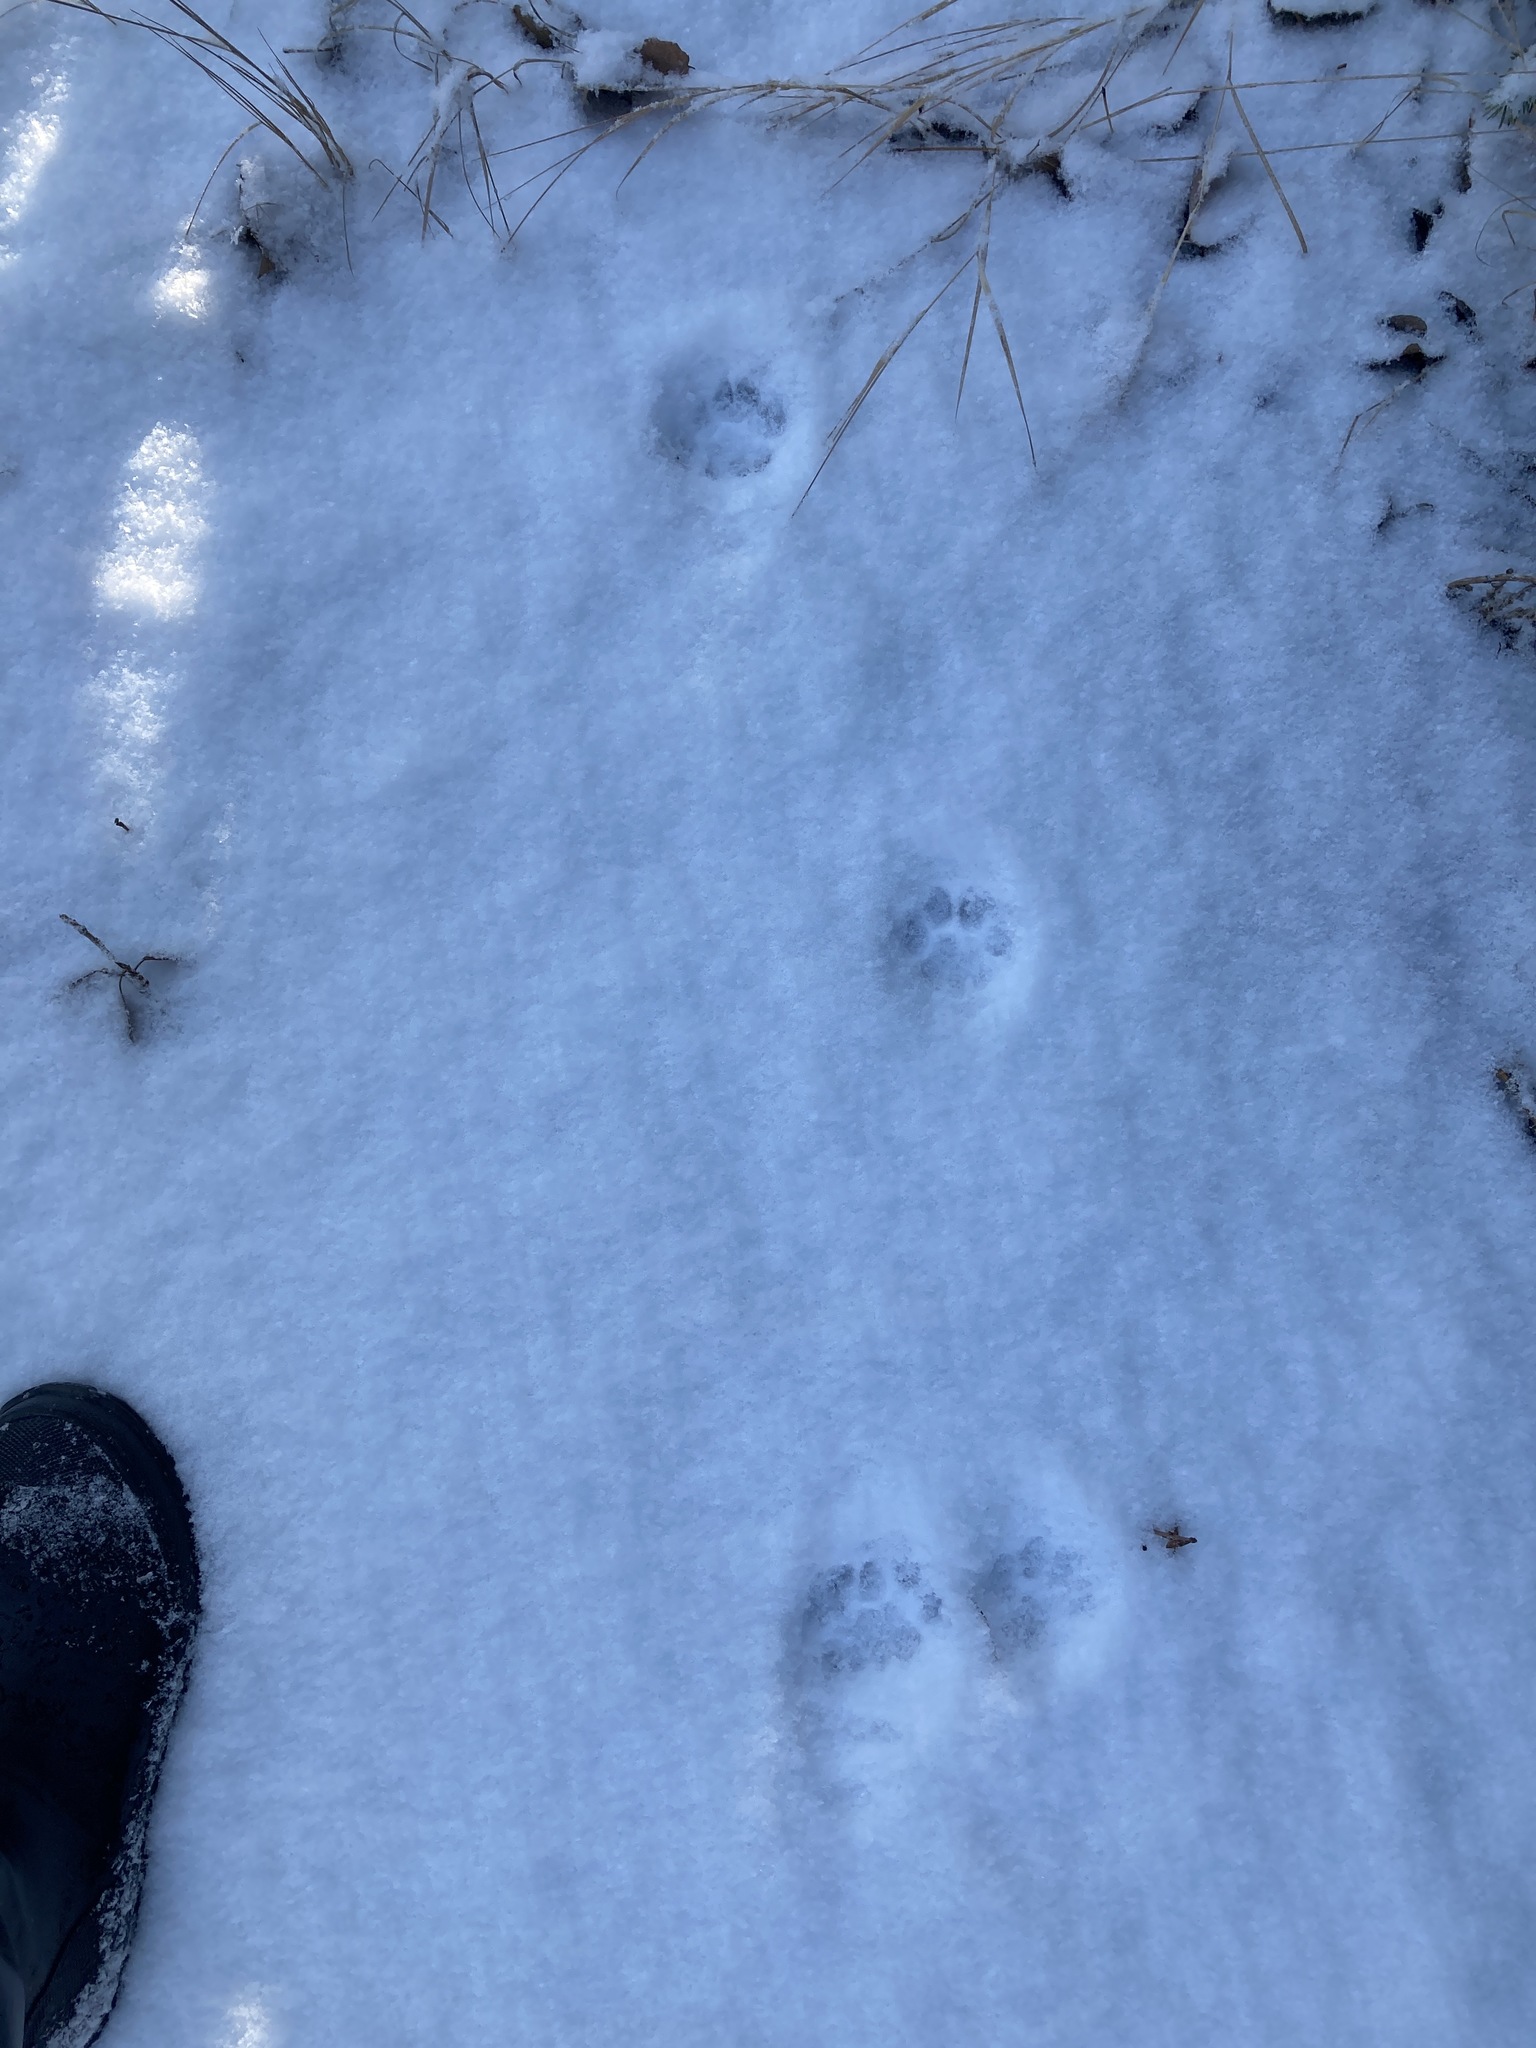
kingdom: Animalia
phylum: Chordata
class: Mammalia
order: Carnivora
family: Felidae
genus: Lynx
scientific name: Lynx rufus
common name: Bobcat
